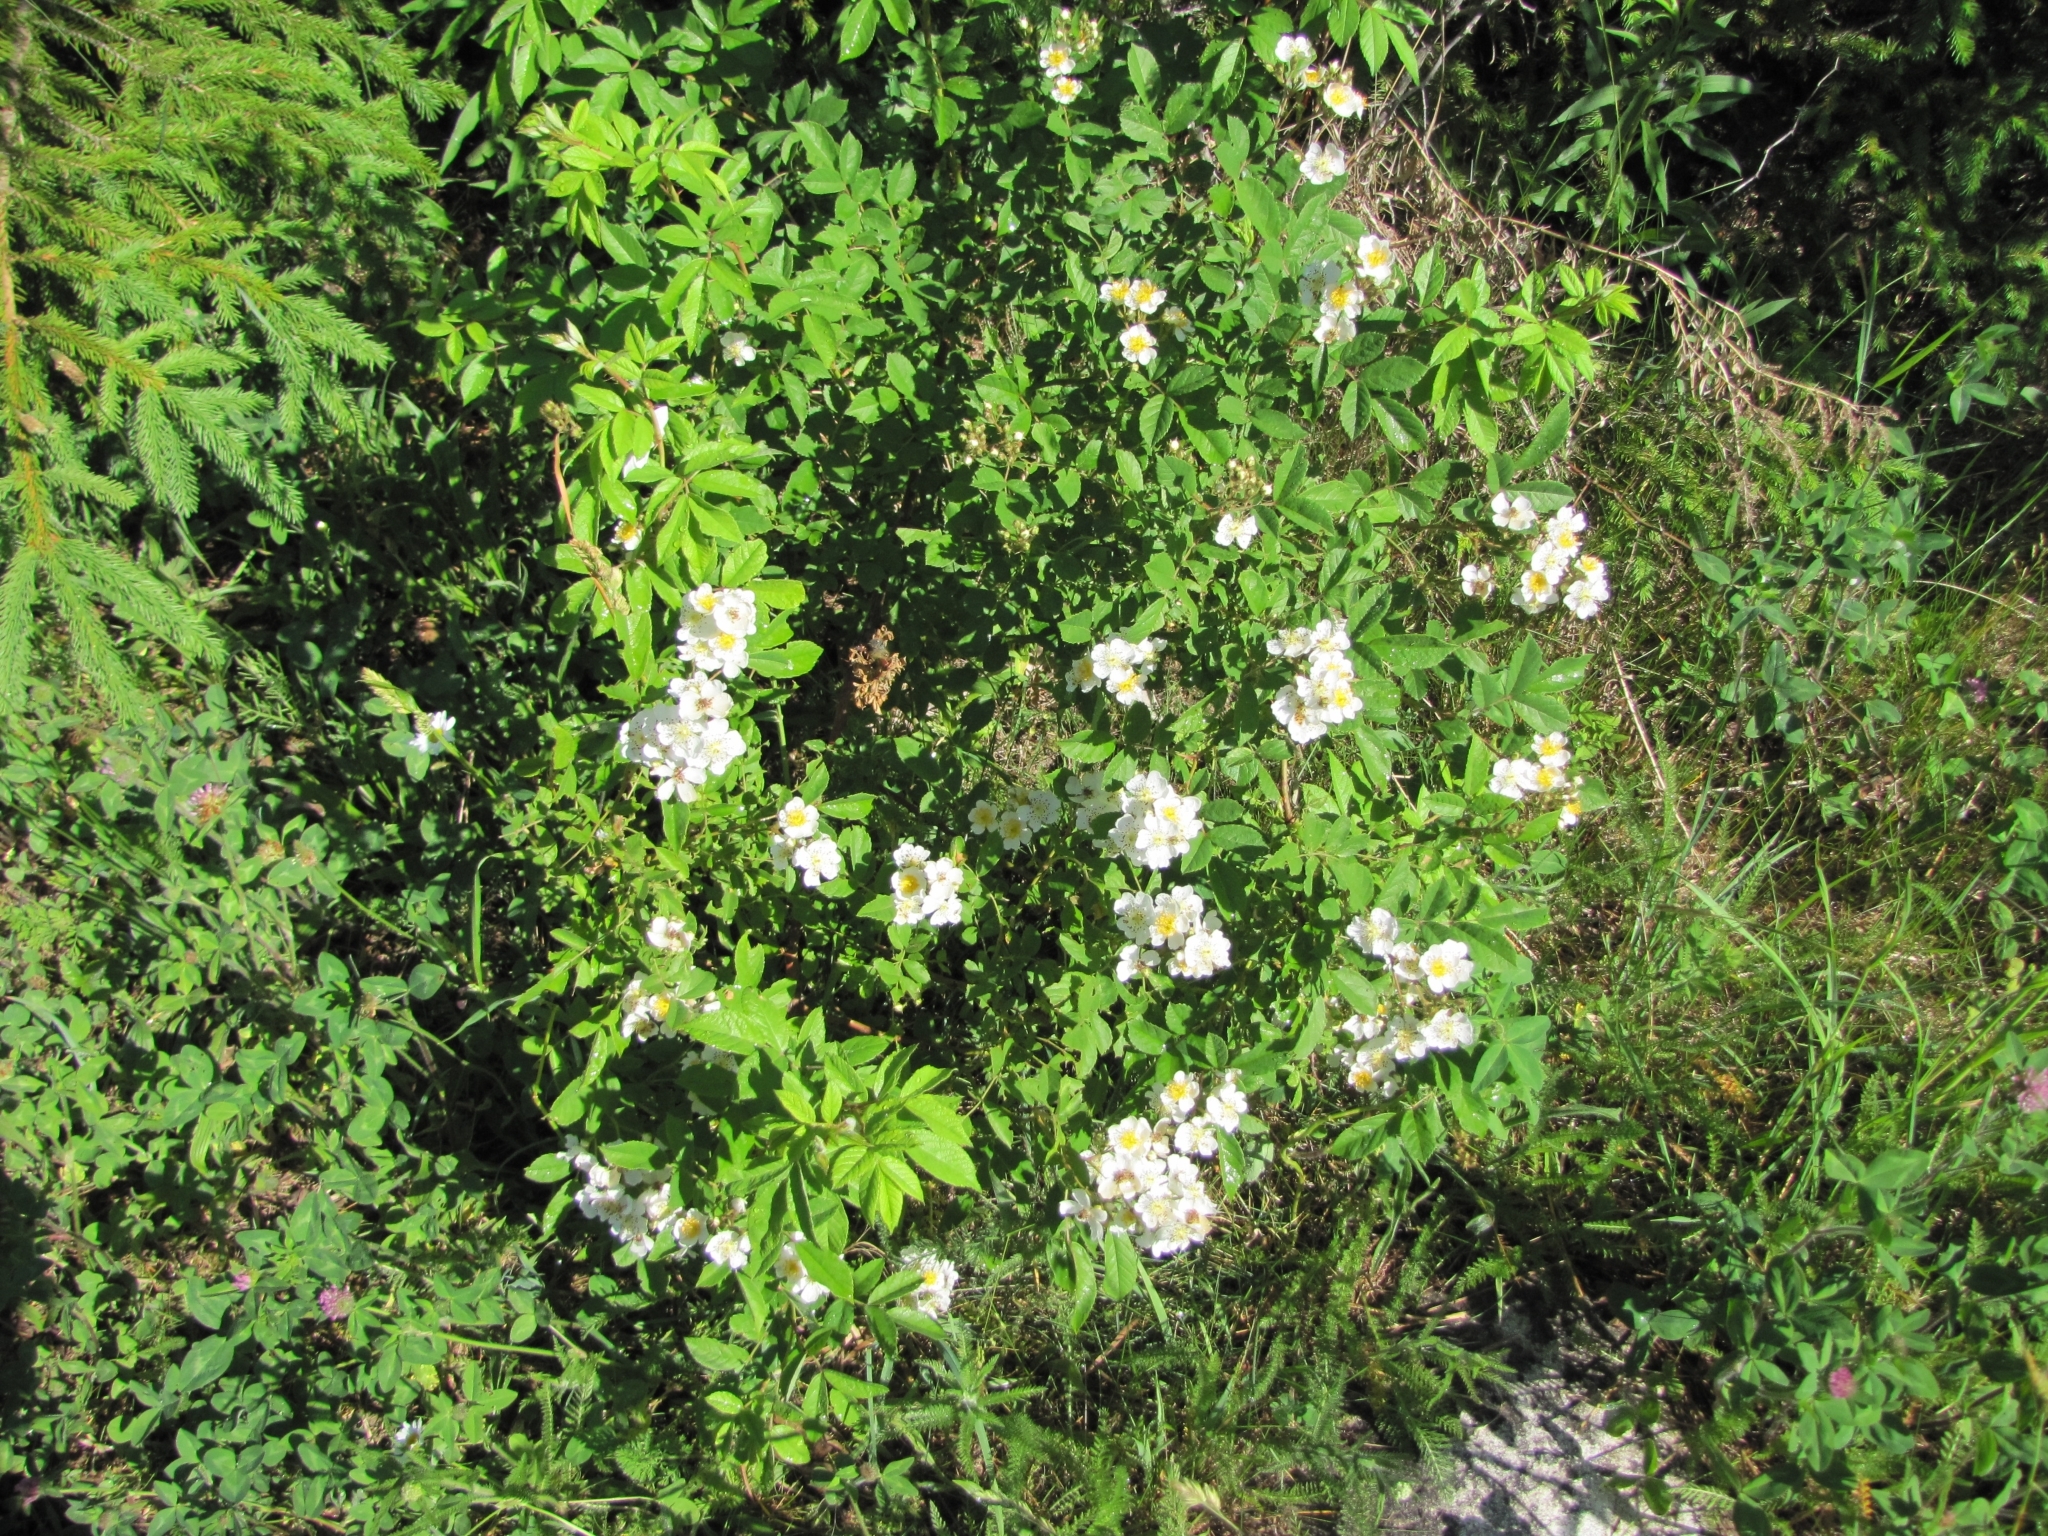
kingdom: Plantae
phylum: Tracheophyta
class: Magnoliopsida
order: Rosales
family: Rosaceae
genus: Rosa
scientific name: Rosa multiflora
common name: Multiflora rose
